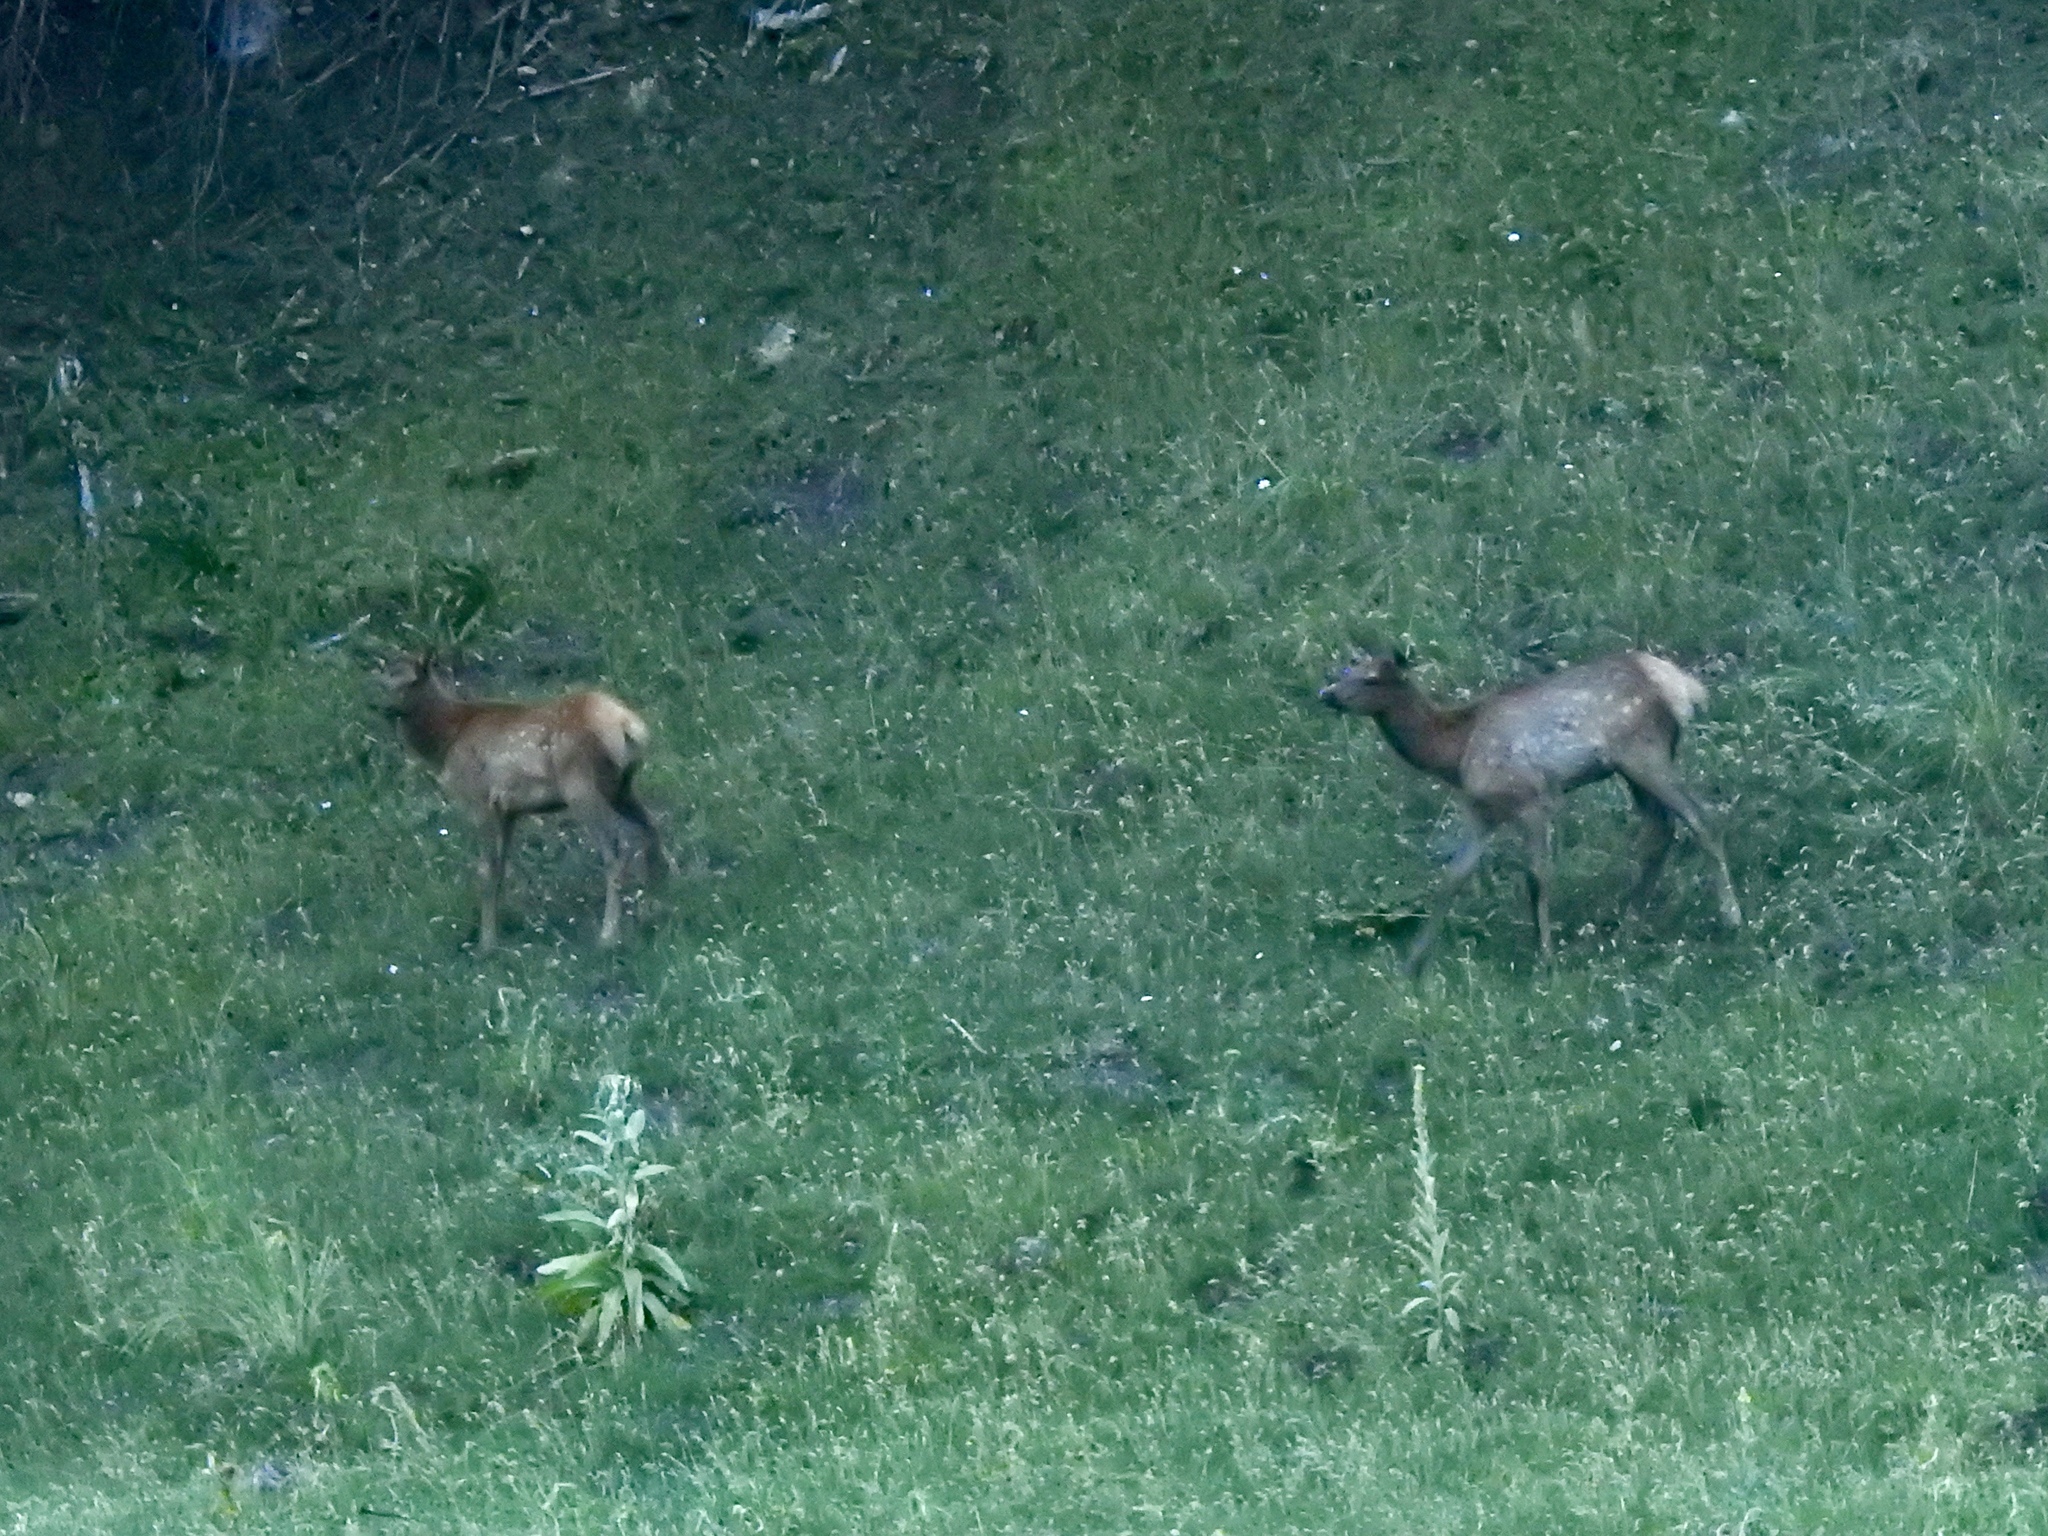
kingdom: Animalia
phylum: Chordata
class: Mammalia
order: Artiodactyla
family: Cervidae
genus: Cervus
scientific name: Cervus elaphus
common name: Red deer
